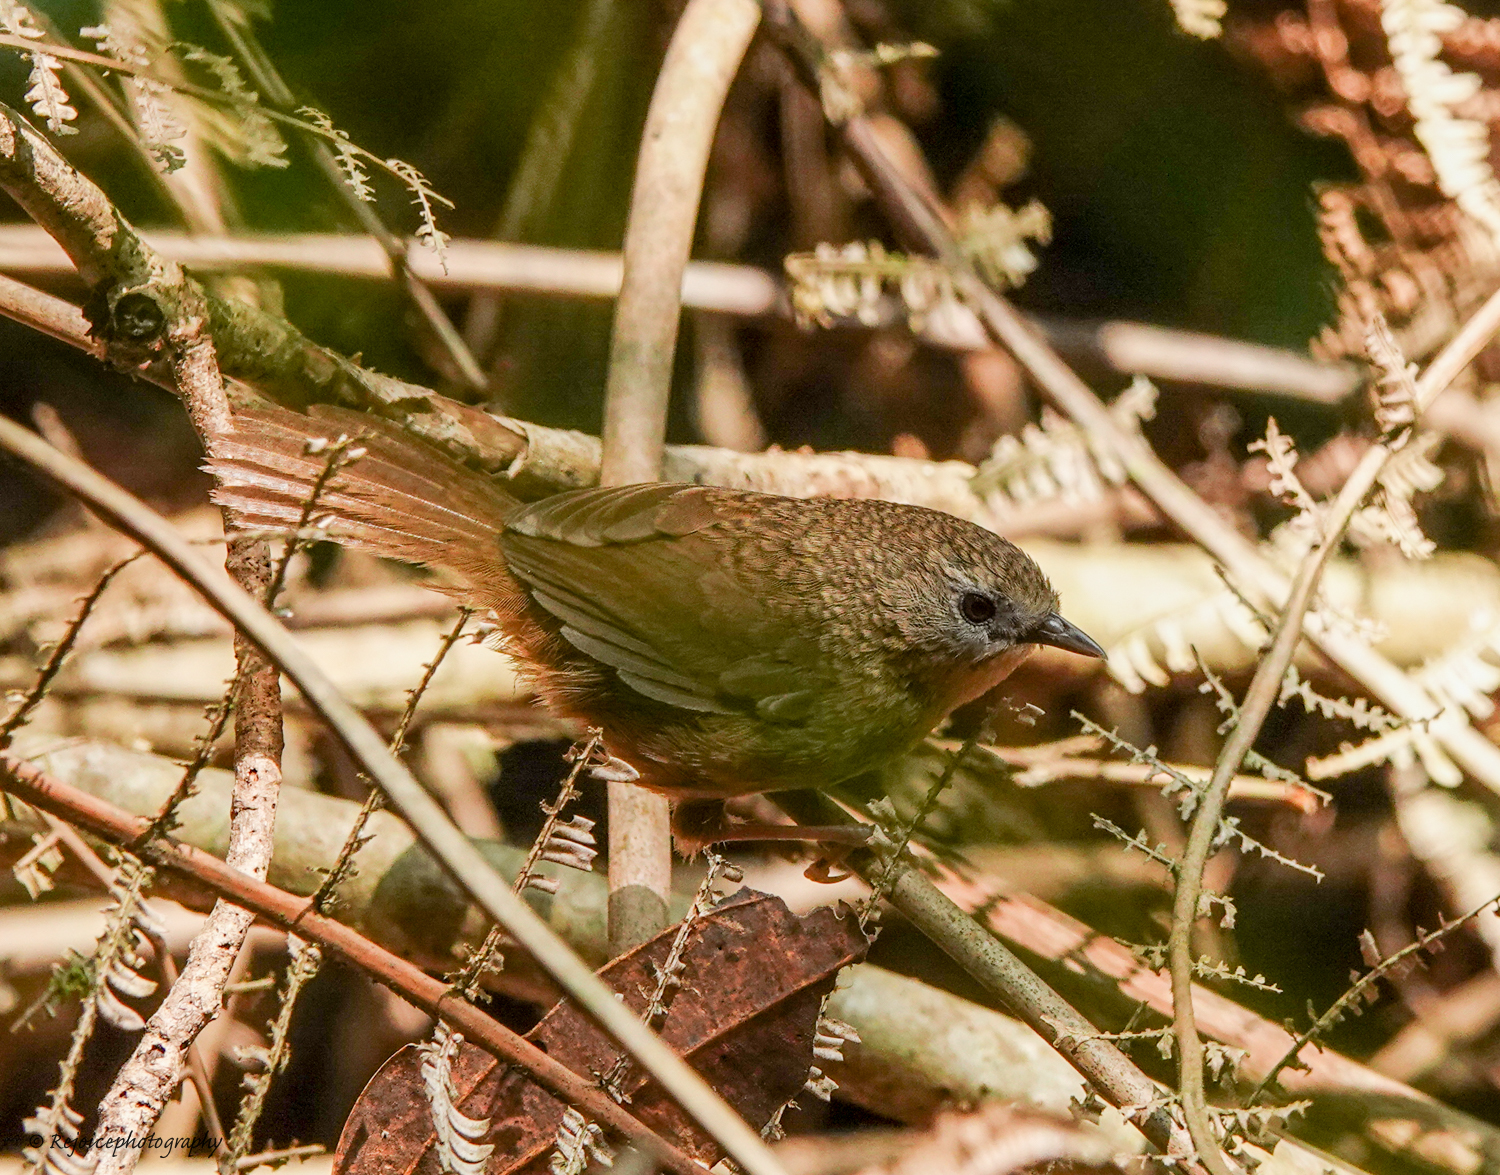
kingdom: Animalia
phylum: Chordata
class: Aves
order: Passeriformes
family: Timaliidae
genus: Spelaeornis
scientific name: Spelaeornis longicaudatus
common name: Tawny-breasted wren-babbler
